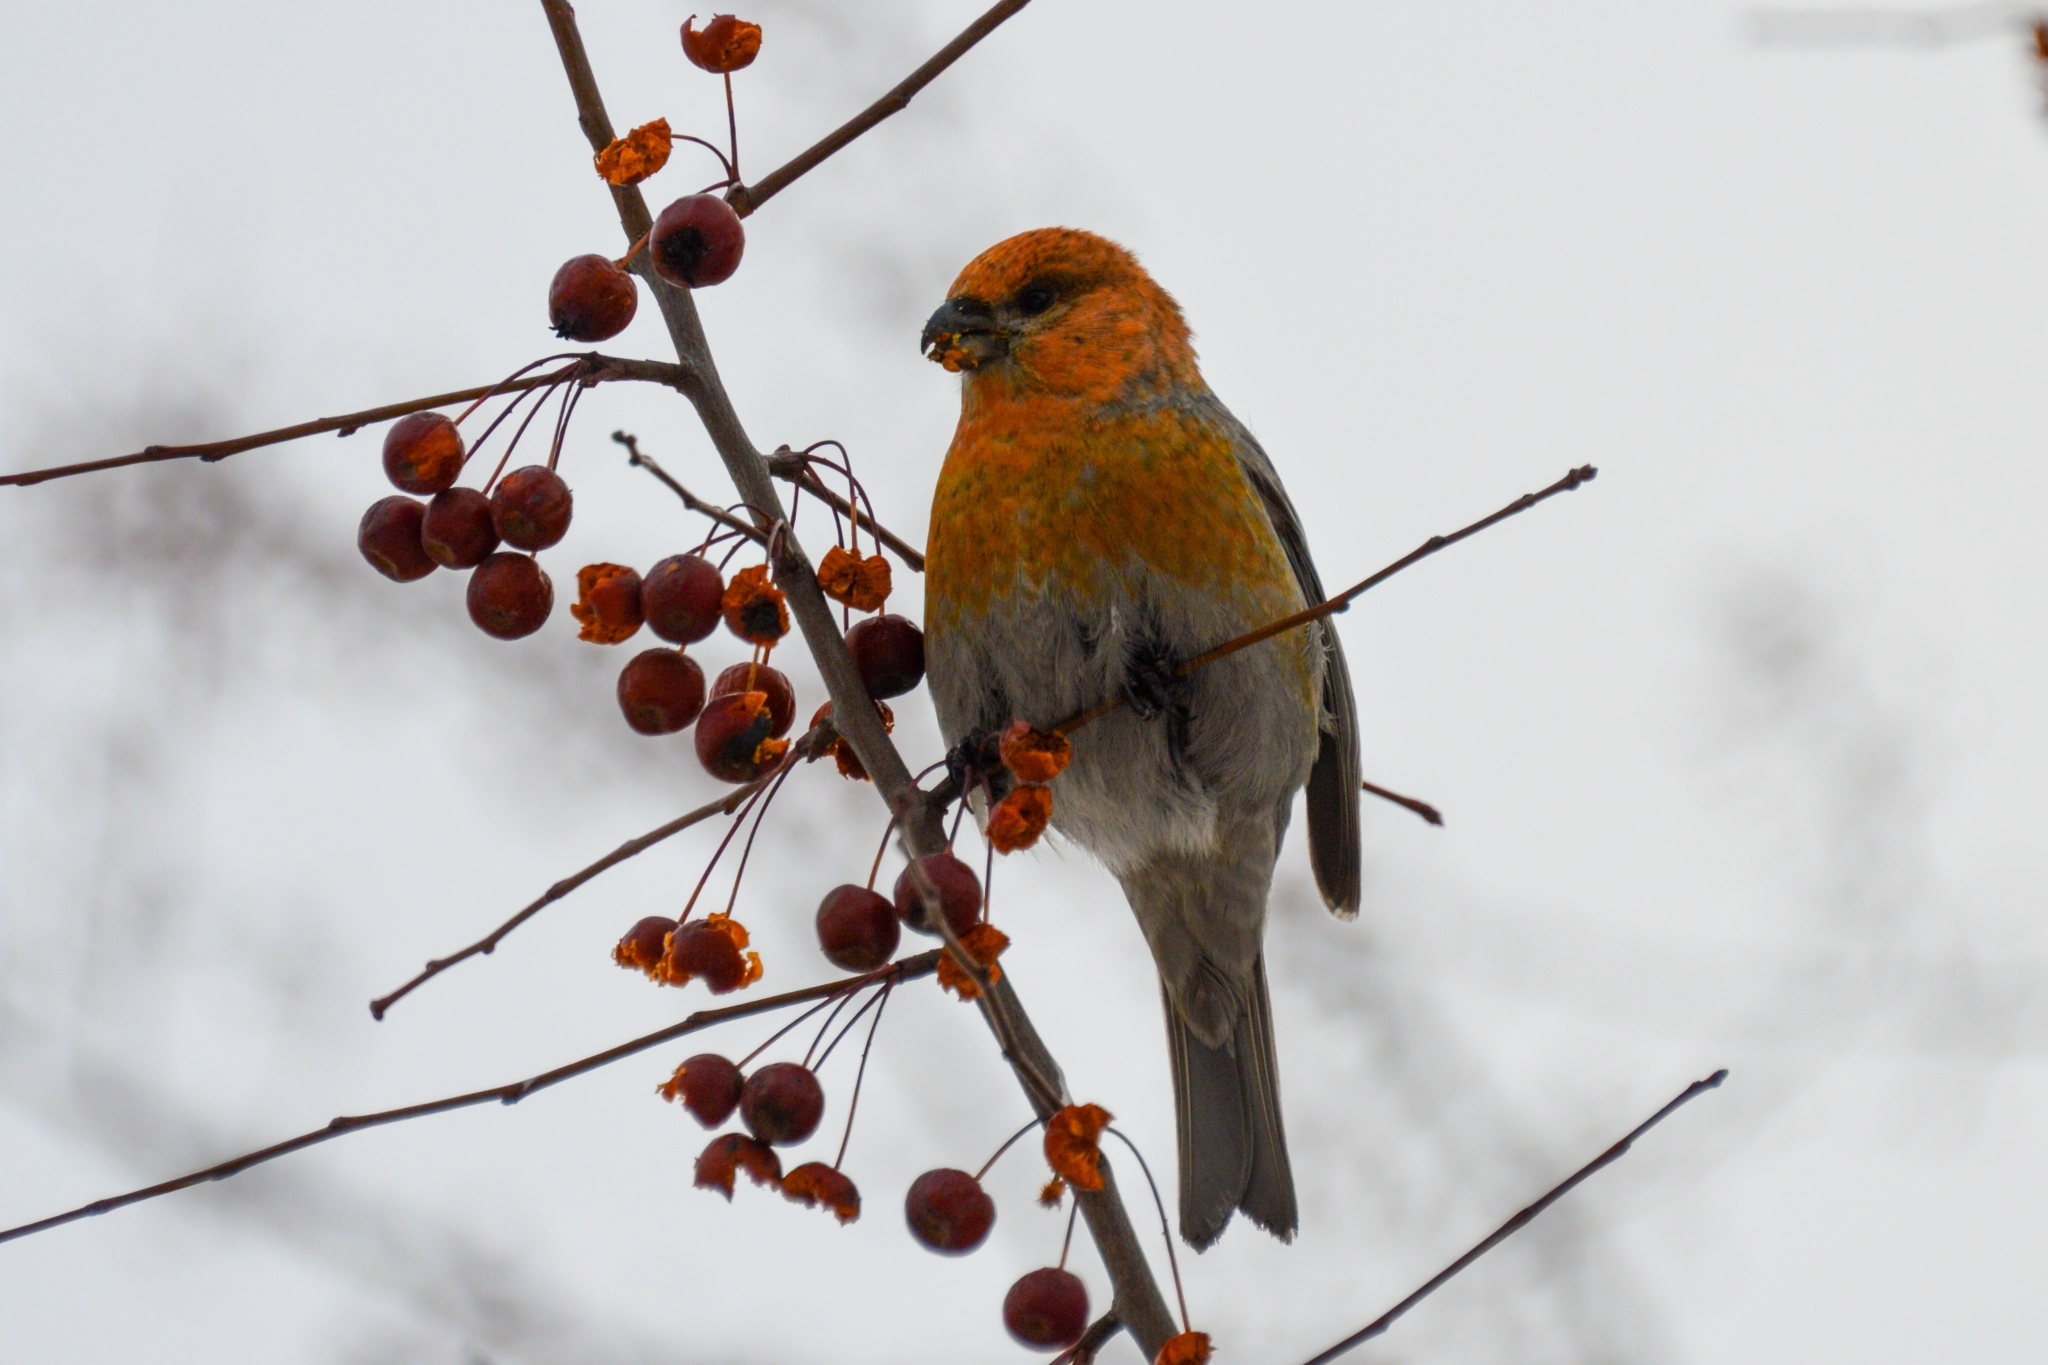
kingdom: Animalia
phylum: Chordata
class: Aves
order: Passeriformes
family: Fringillidae
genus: Pinicola
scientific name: Pinicola enucleator
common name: Pine grosbeak
